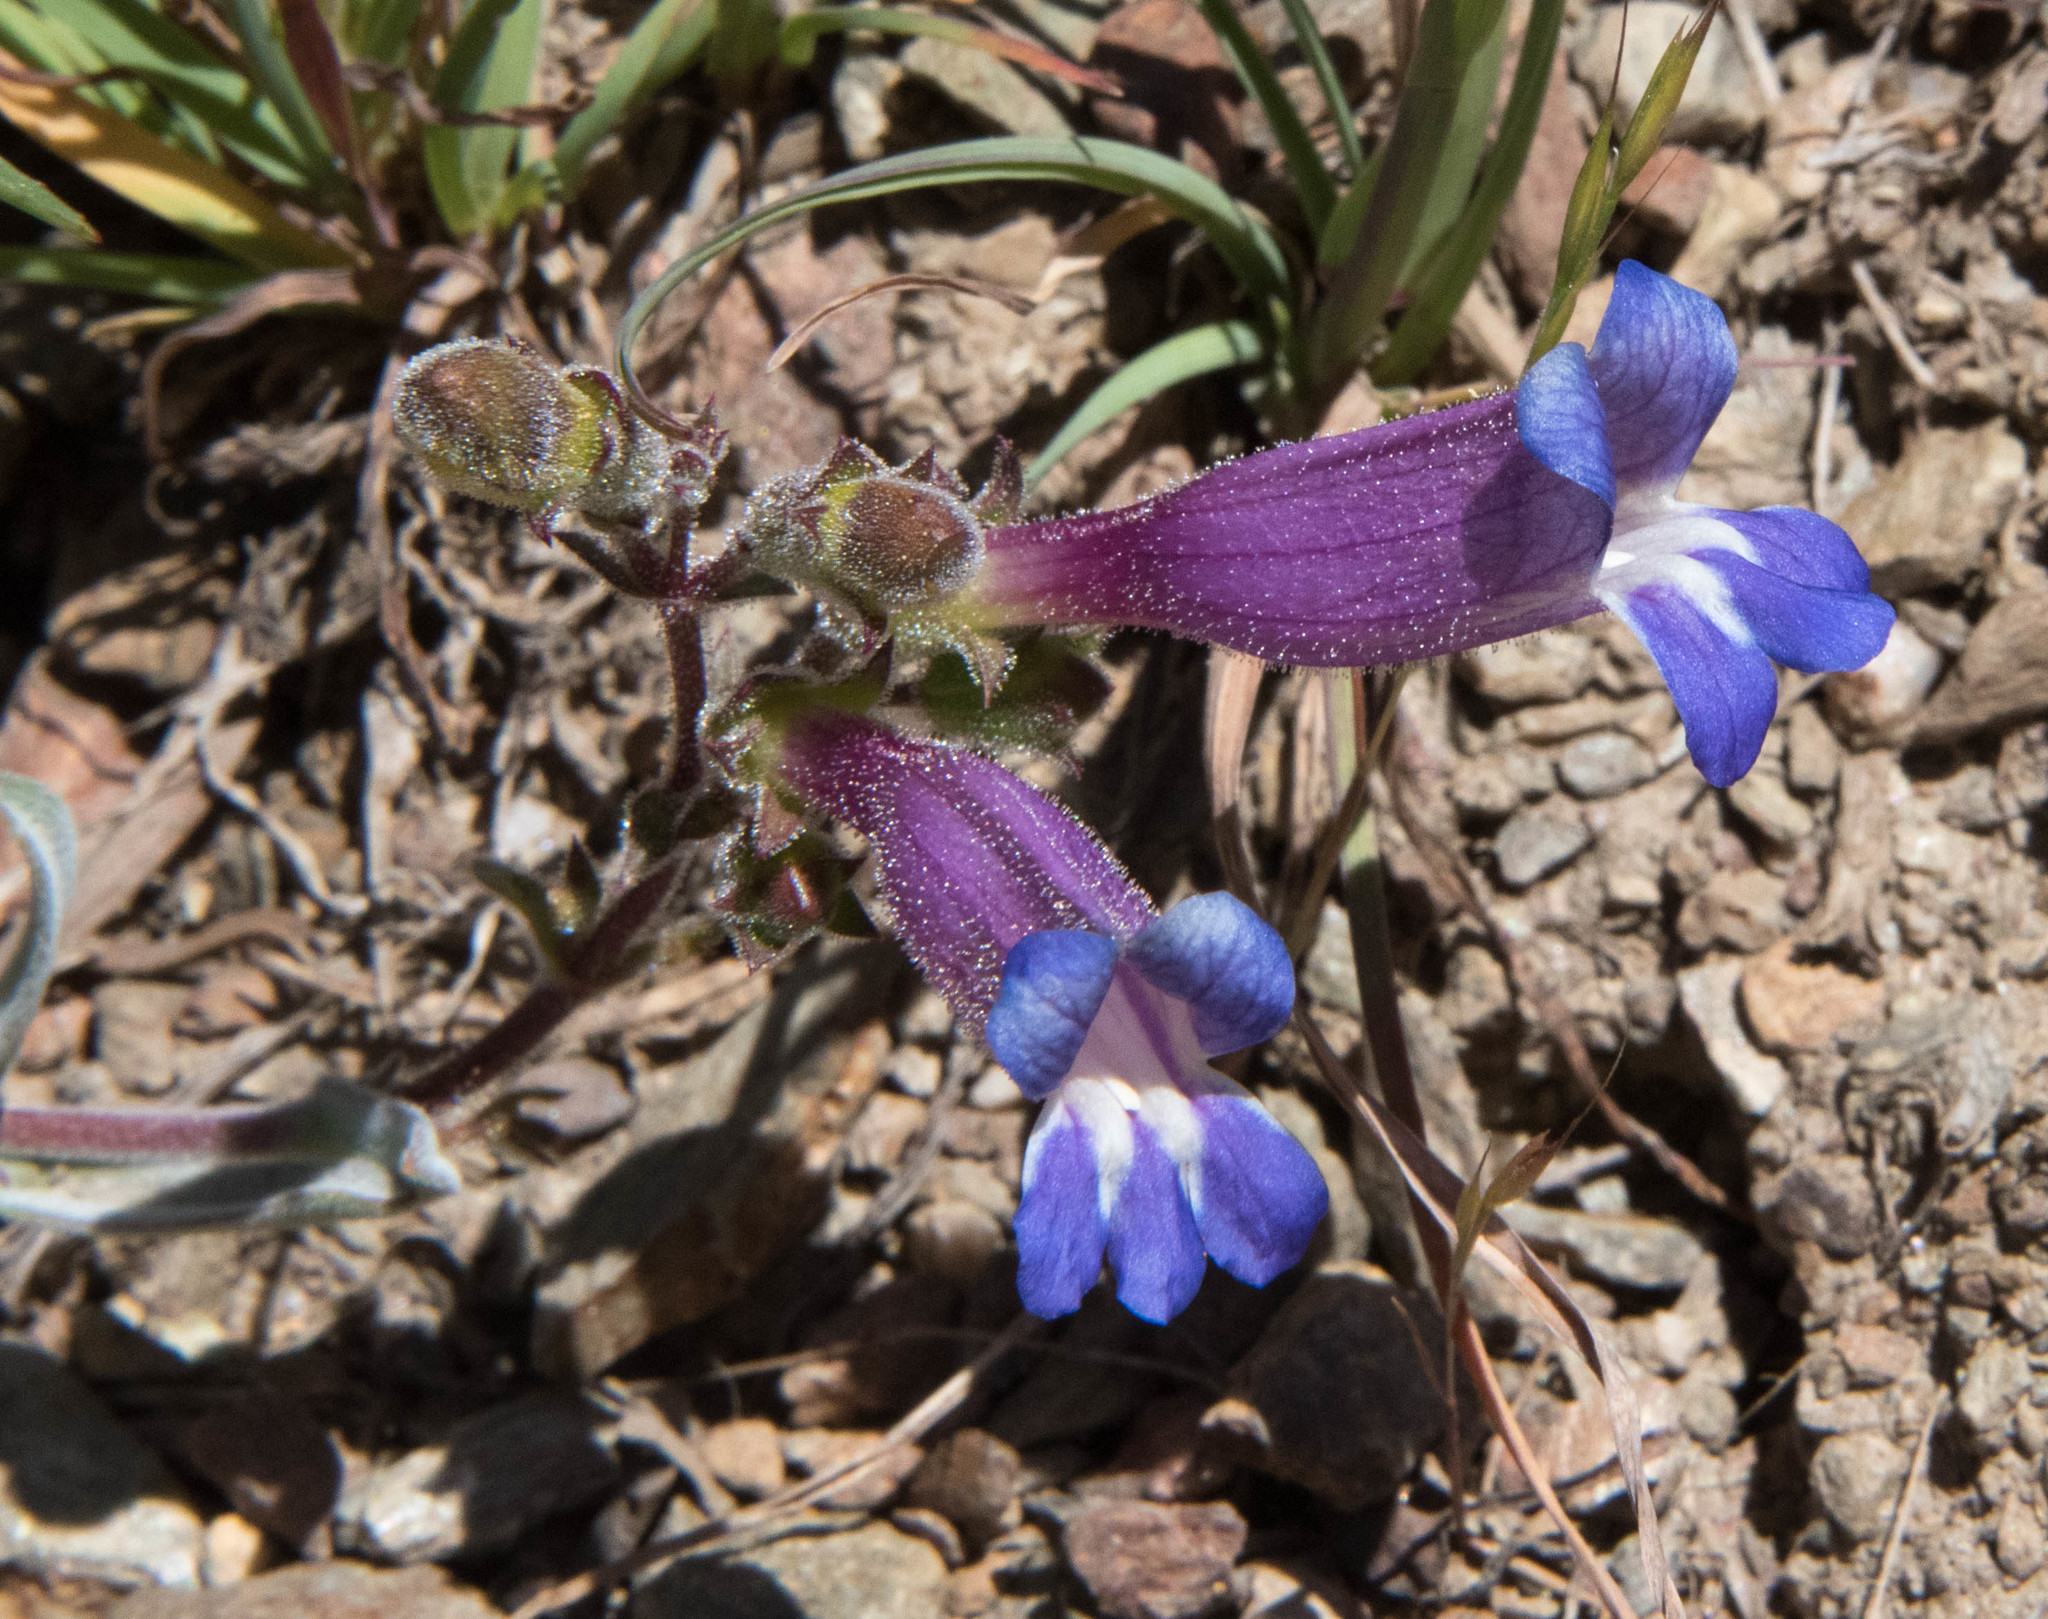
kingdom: Plantae
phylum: Tracheophyta
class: Magnoliopsida
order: Lamiales
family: Plantaginaceae
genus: Penstemon
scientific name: Penstemon purpusii
